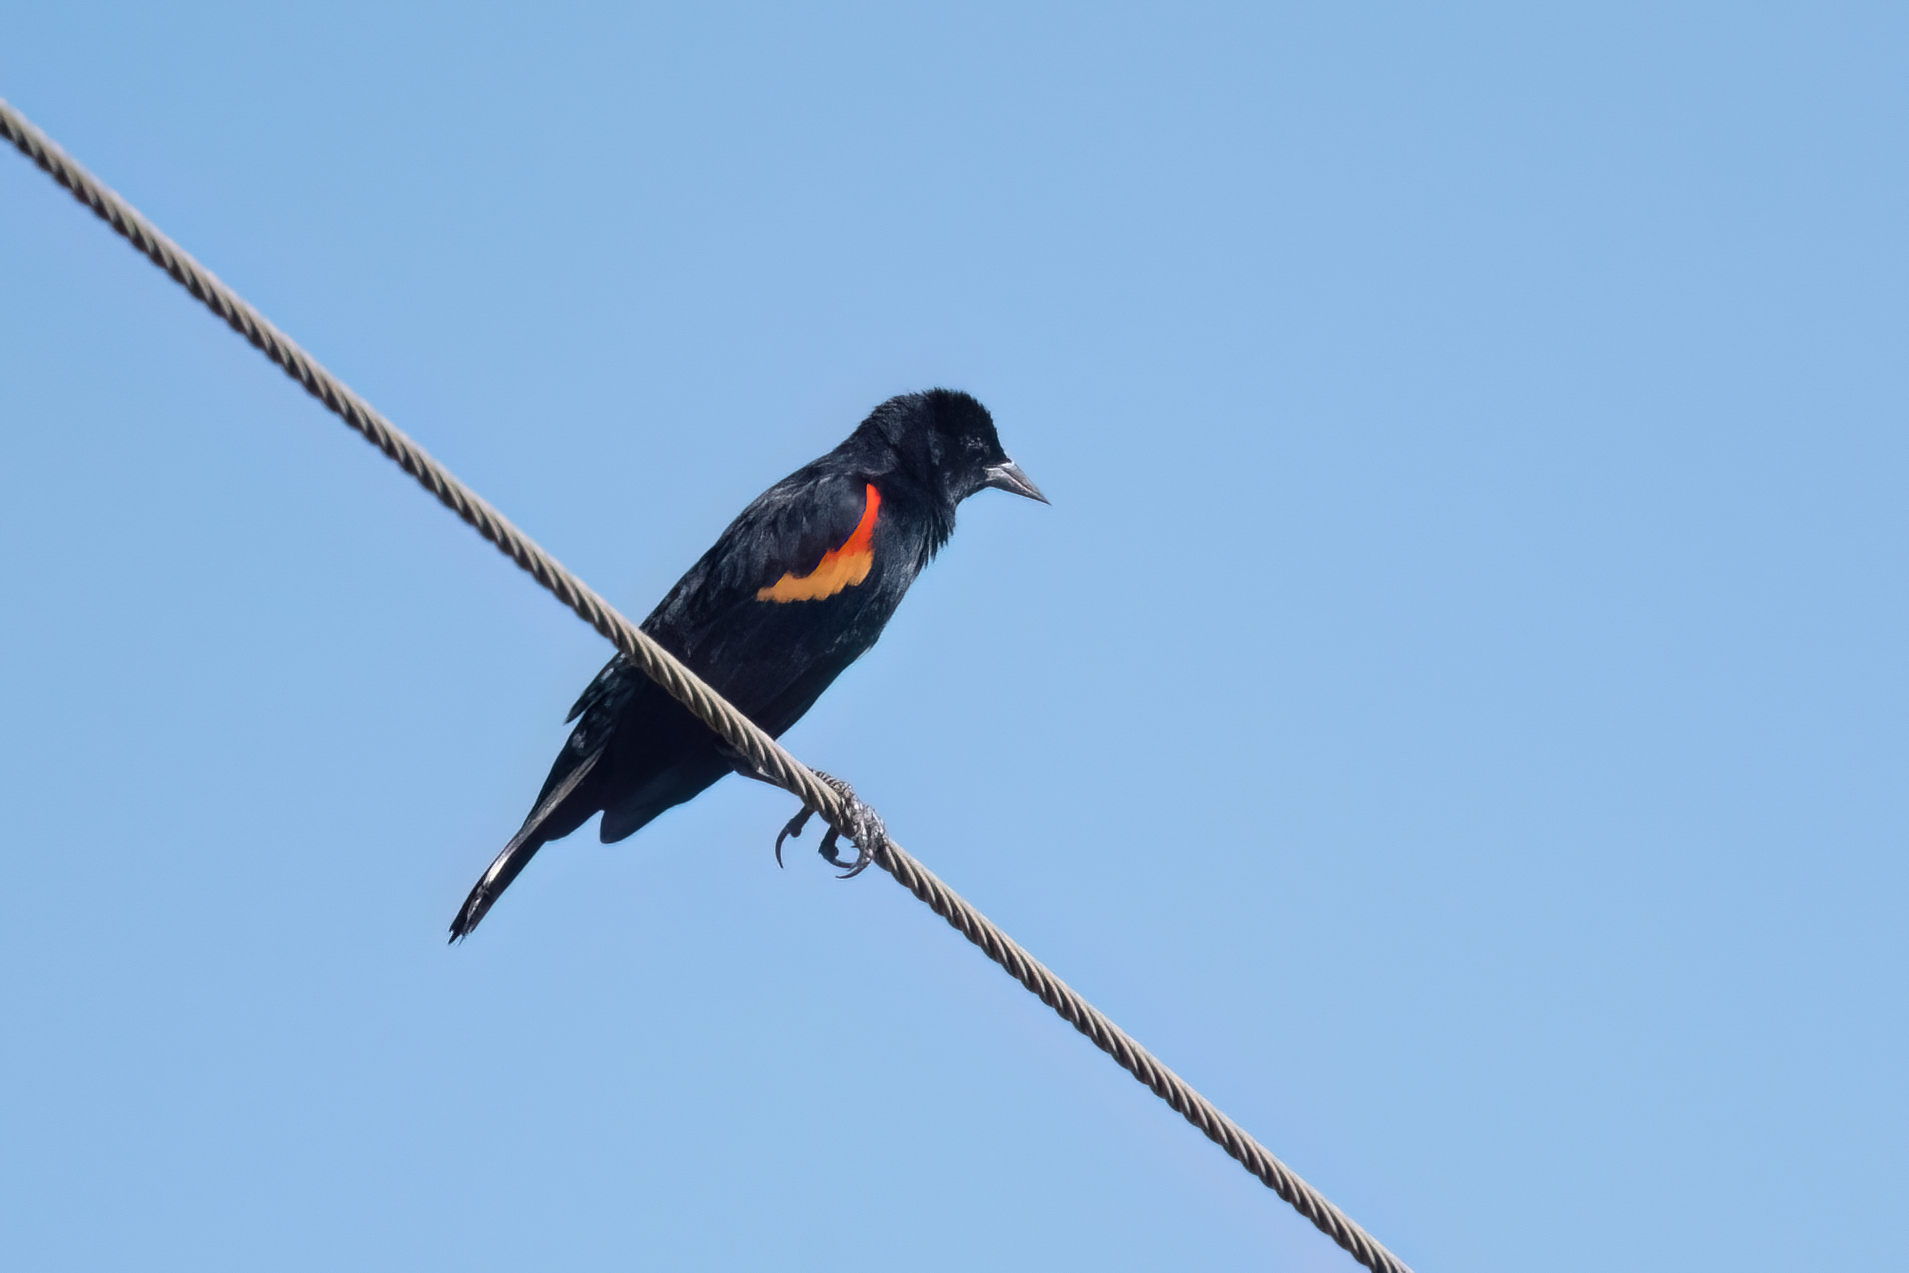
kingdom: Animalia
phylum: Chordata
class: Aves
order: Passeriformes
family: Icteridae
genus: Agelaius
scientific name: Agelaius phoeniceus
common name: Red-winged blackbird
